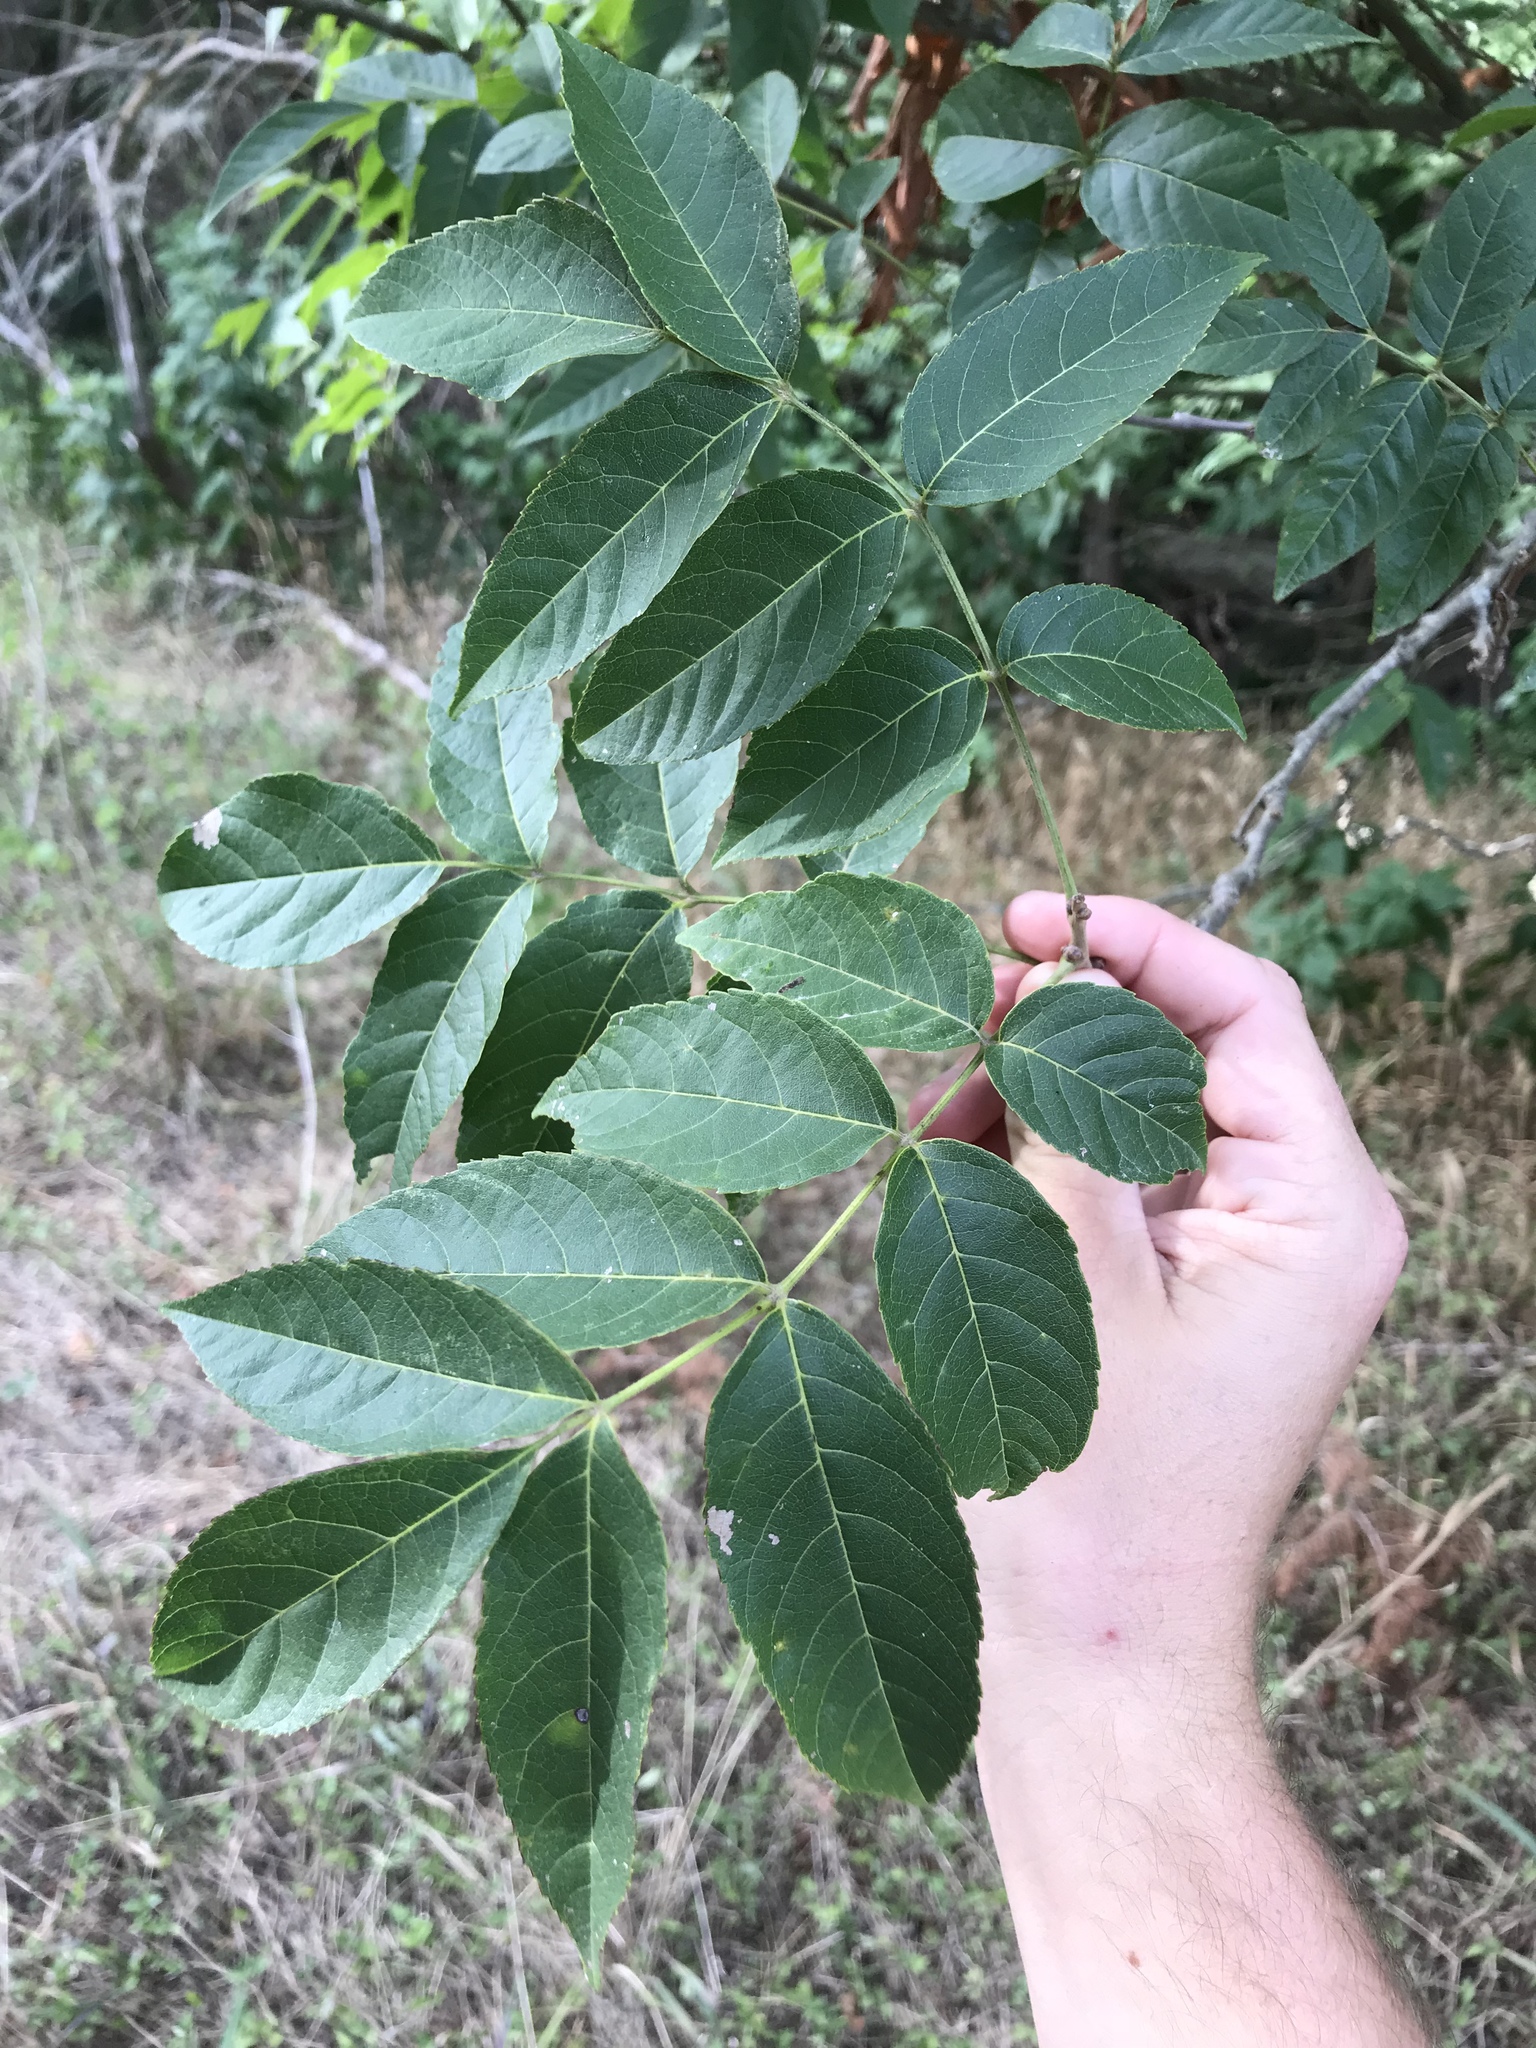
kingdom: Plantae
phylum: Tracheophyta
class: Magnoliopsida
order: Sapindales
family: Sapindaceae
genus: Ungnadia
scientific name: Ungnadia speciosa
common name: Texas-buckeye
